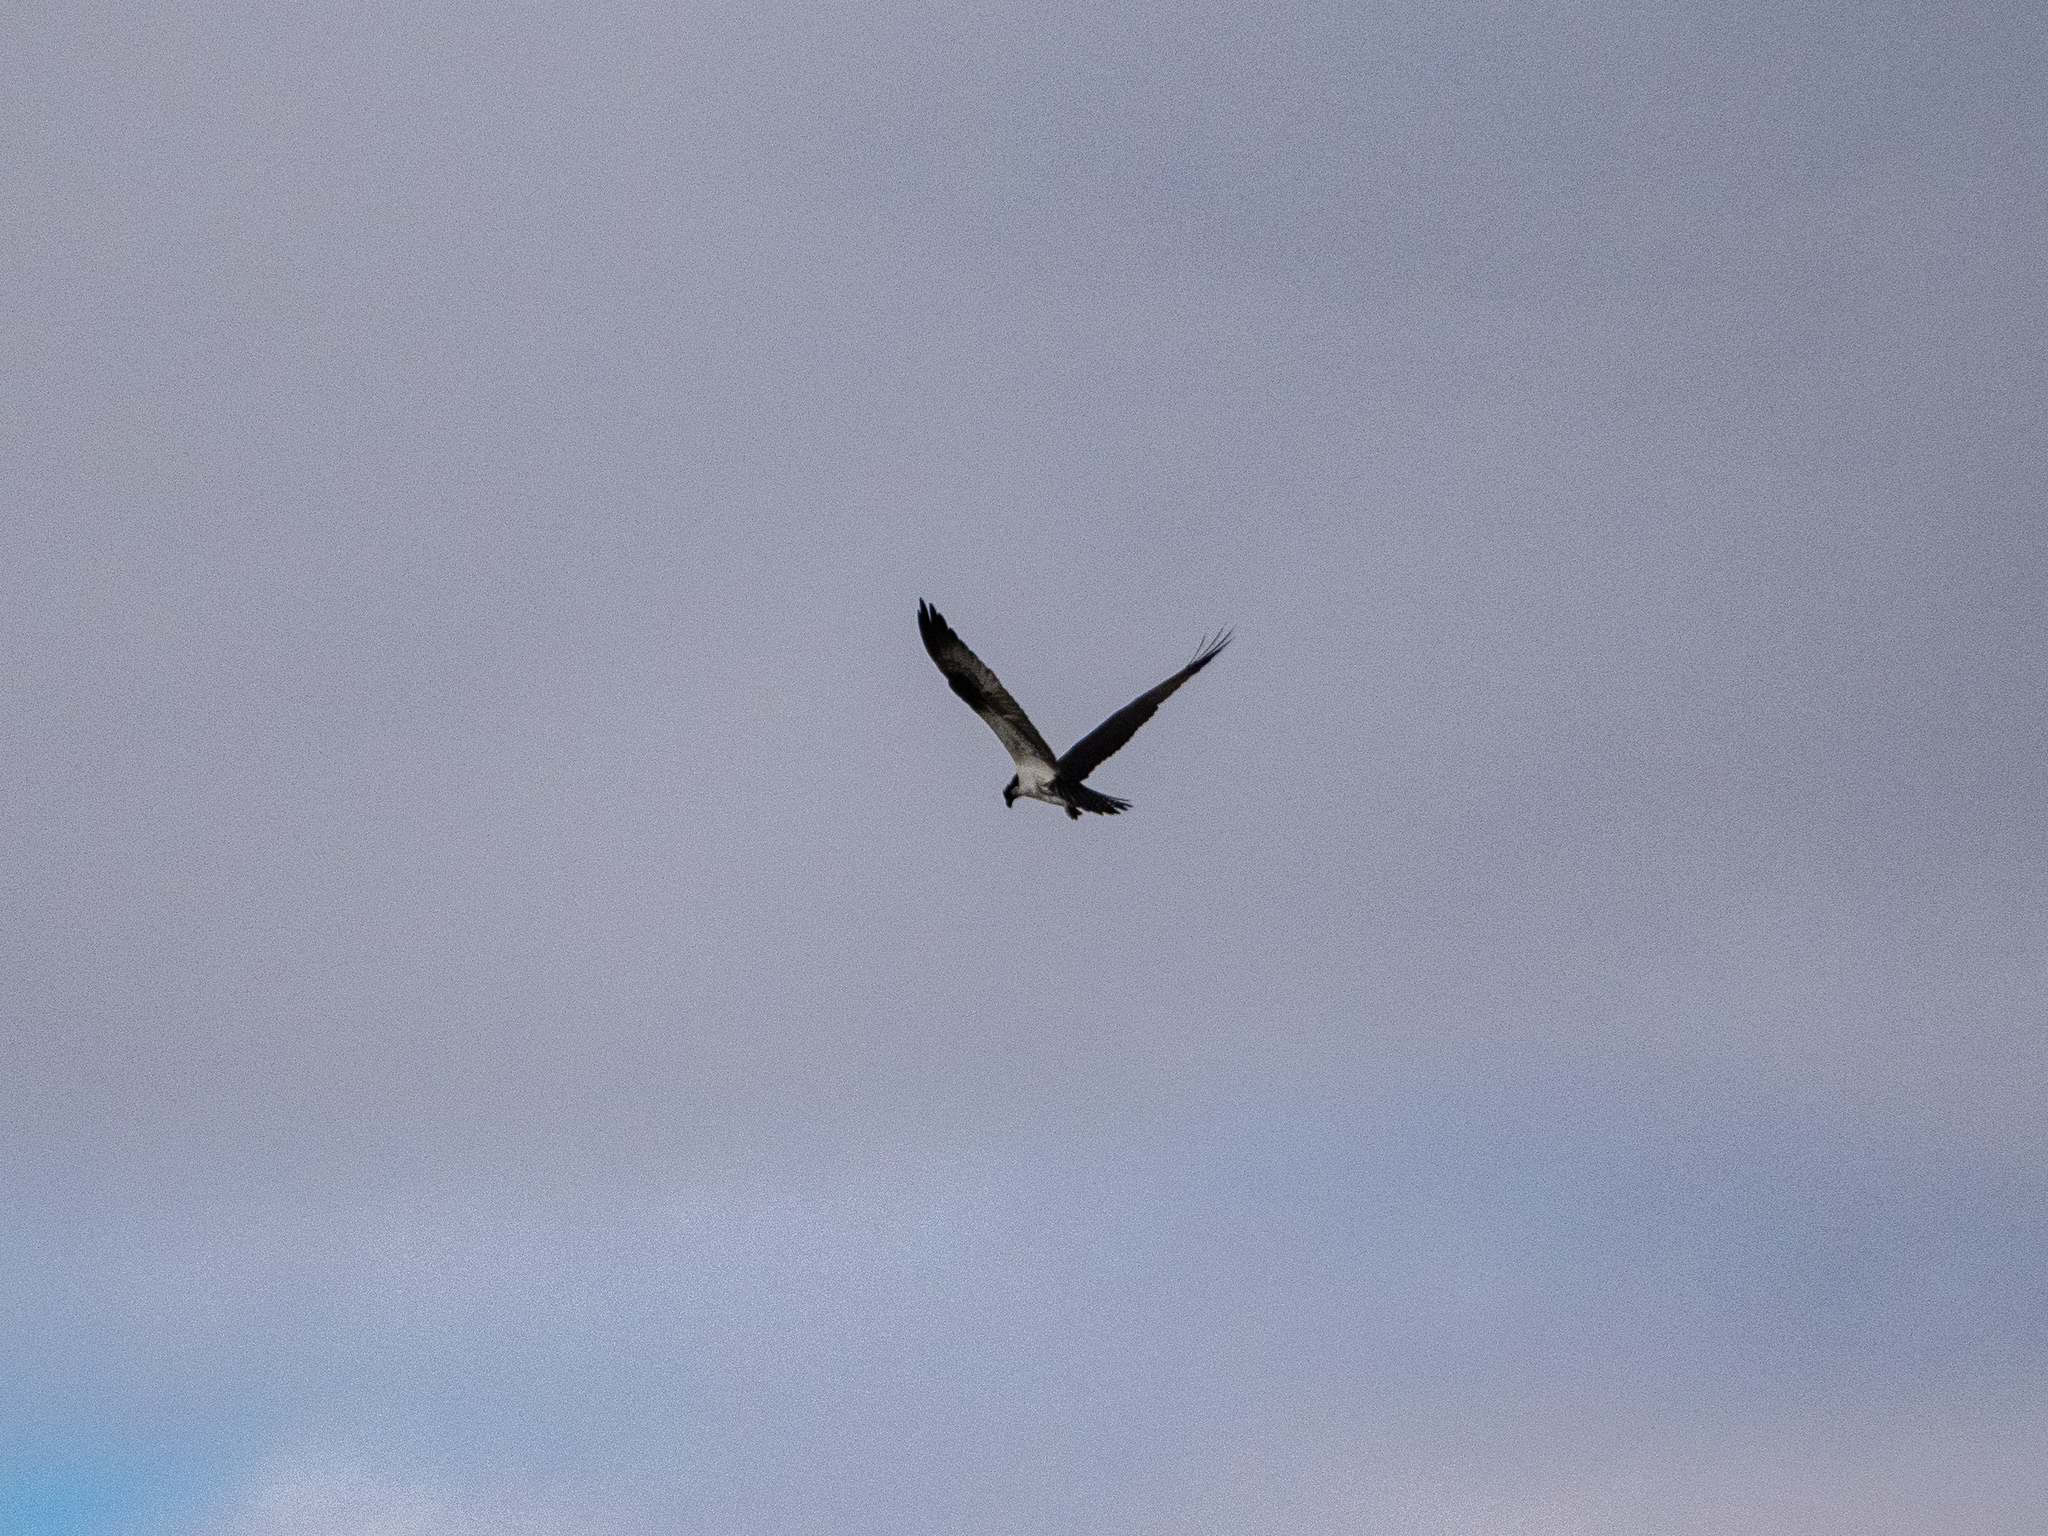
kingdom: Animalia
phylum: Chordata
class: Aves
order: Accipitriformes
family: Pandionidae
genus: Pandion
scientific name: Pandion haliaetus
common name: Osprey
